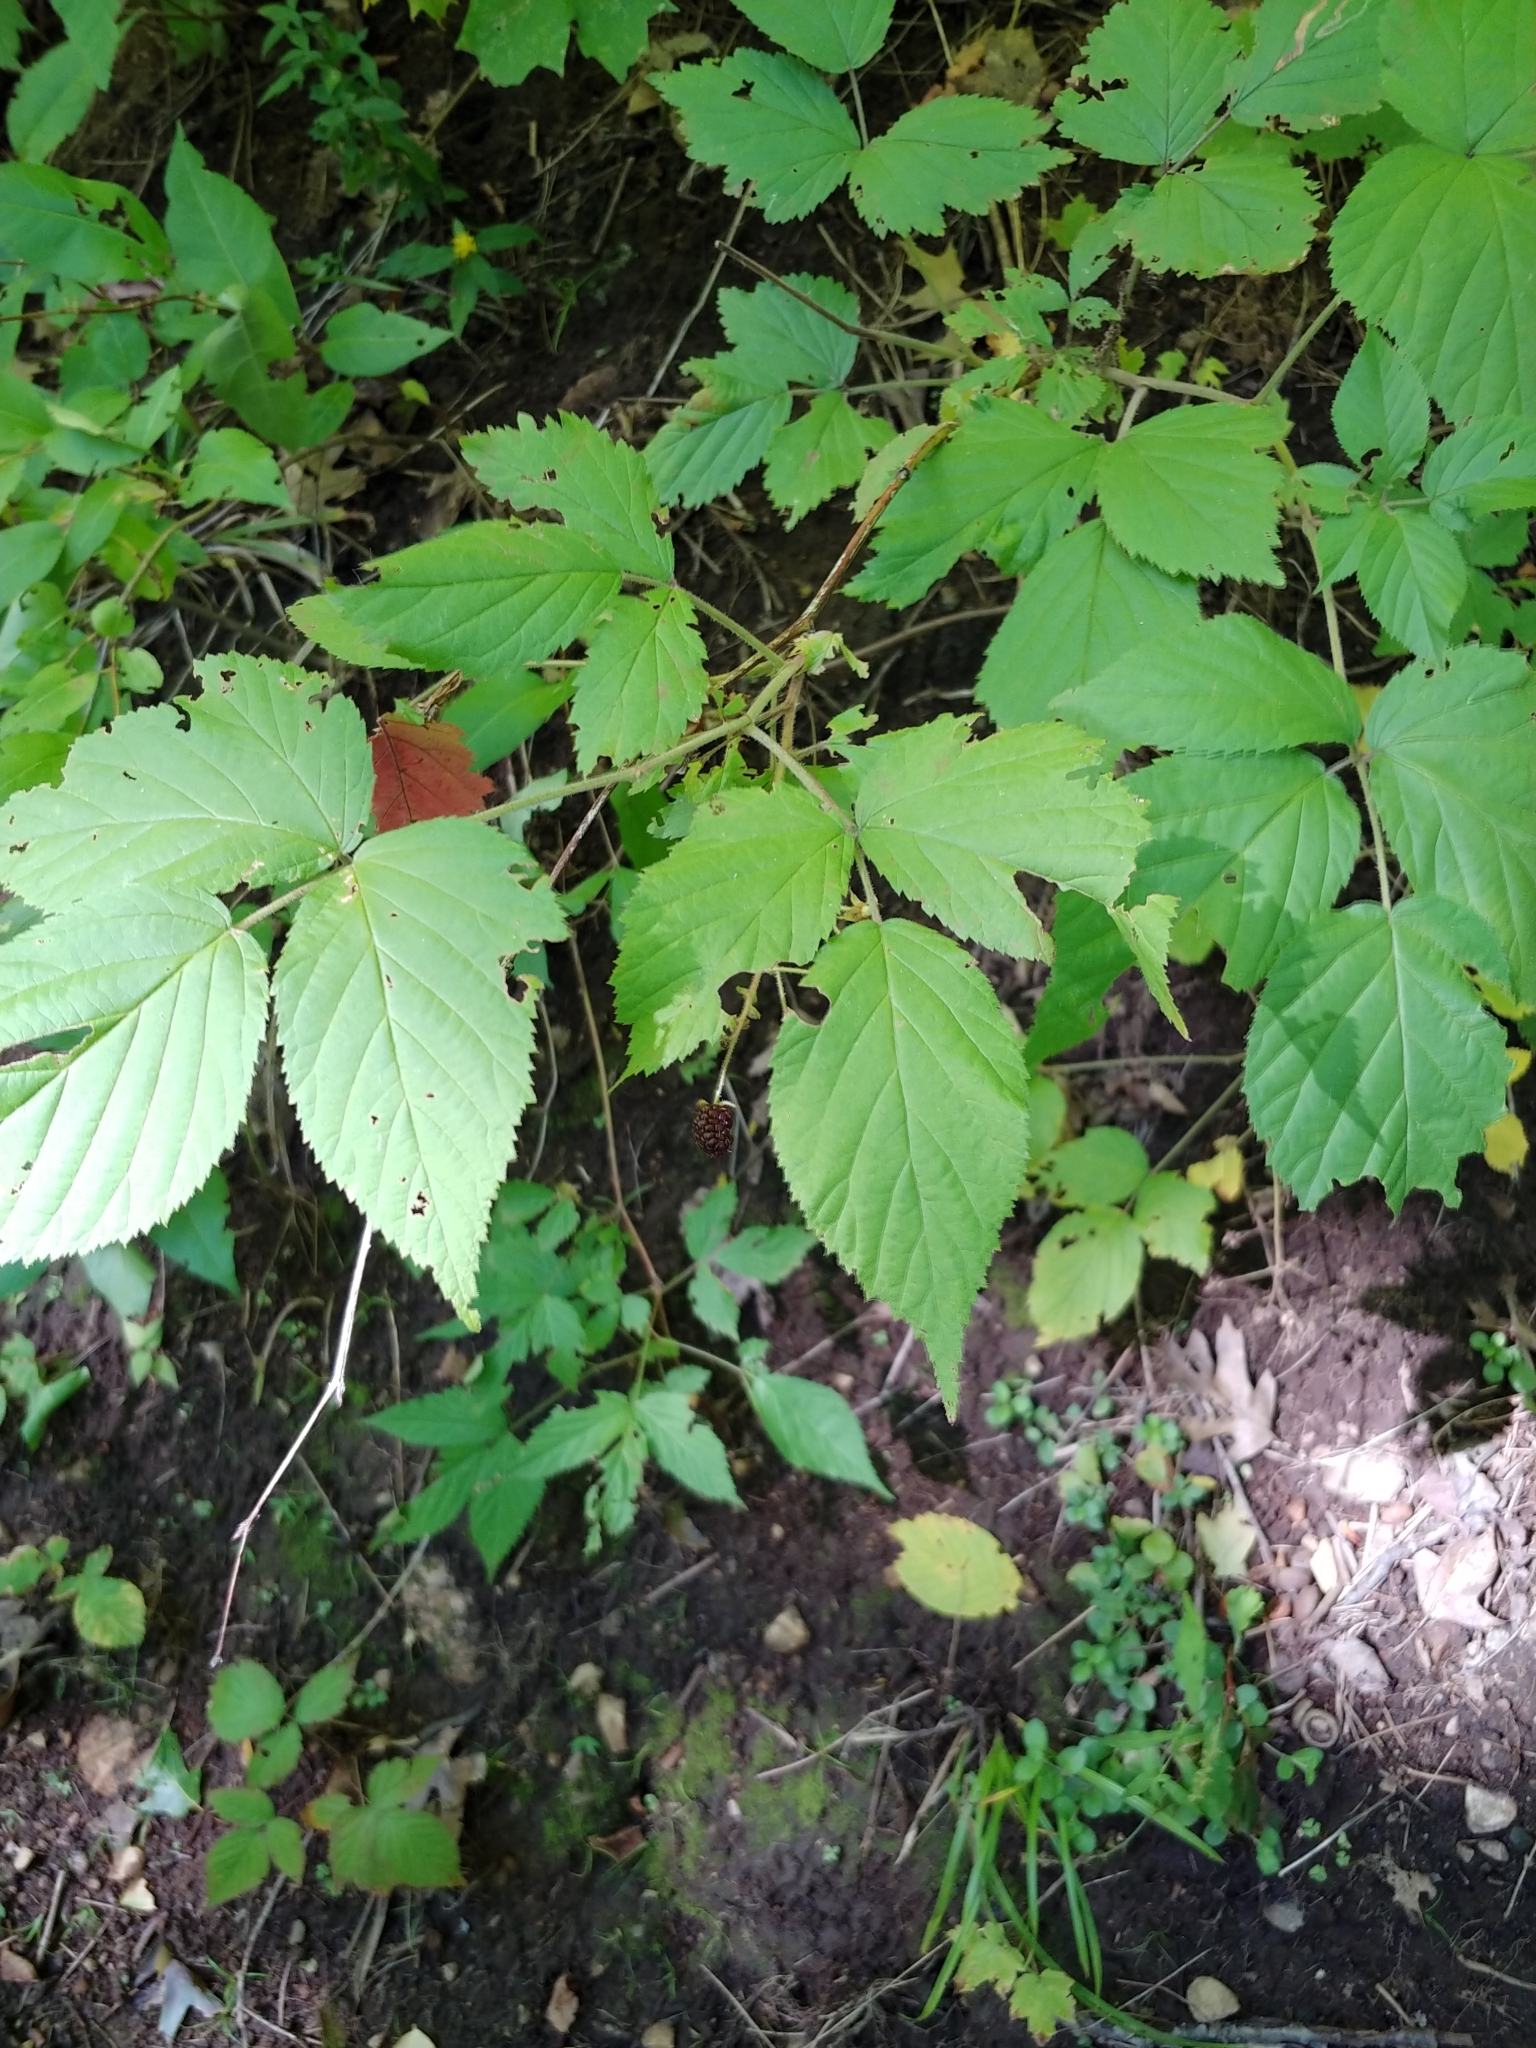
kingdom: Plantae
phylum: Tracheophyta
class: Magnoliopsida
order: Rosales
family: Rosaceae
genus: Rubus
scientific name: Rubus allegheniensis
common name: Allegheny blackberry
